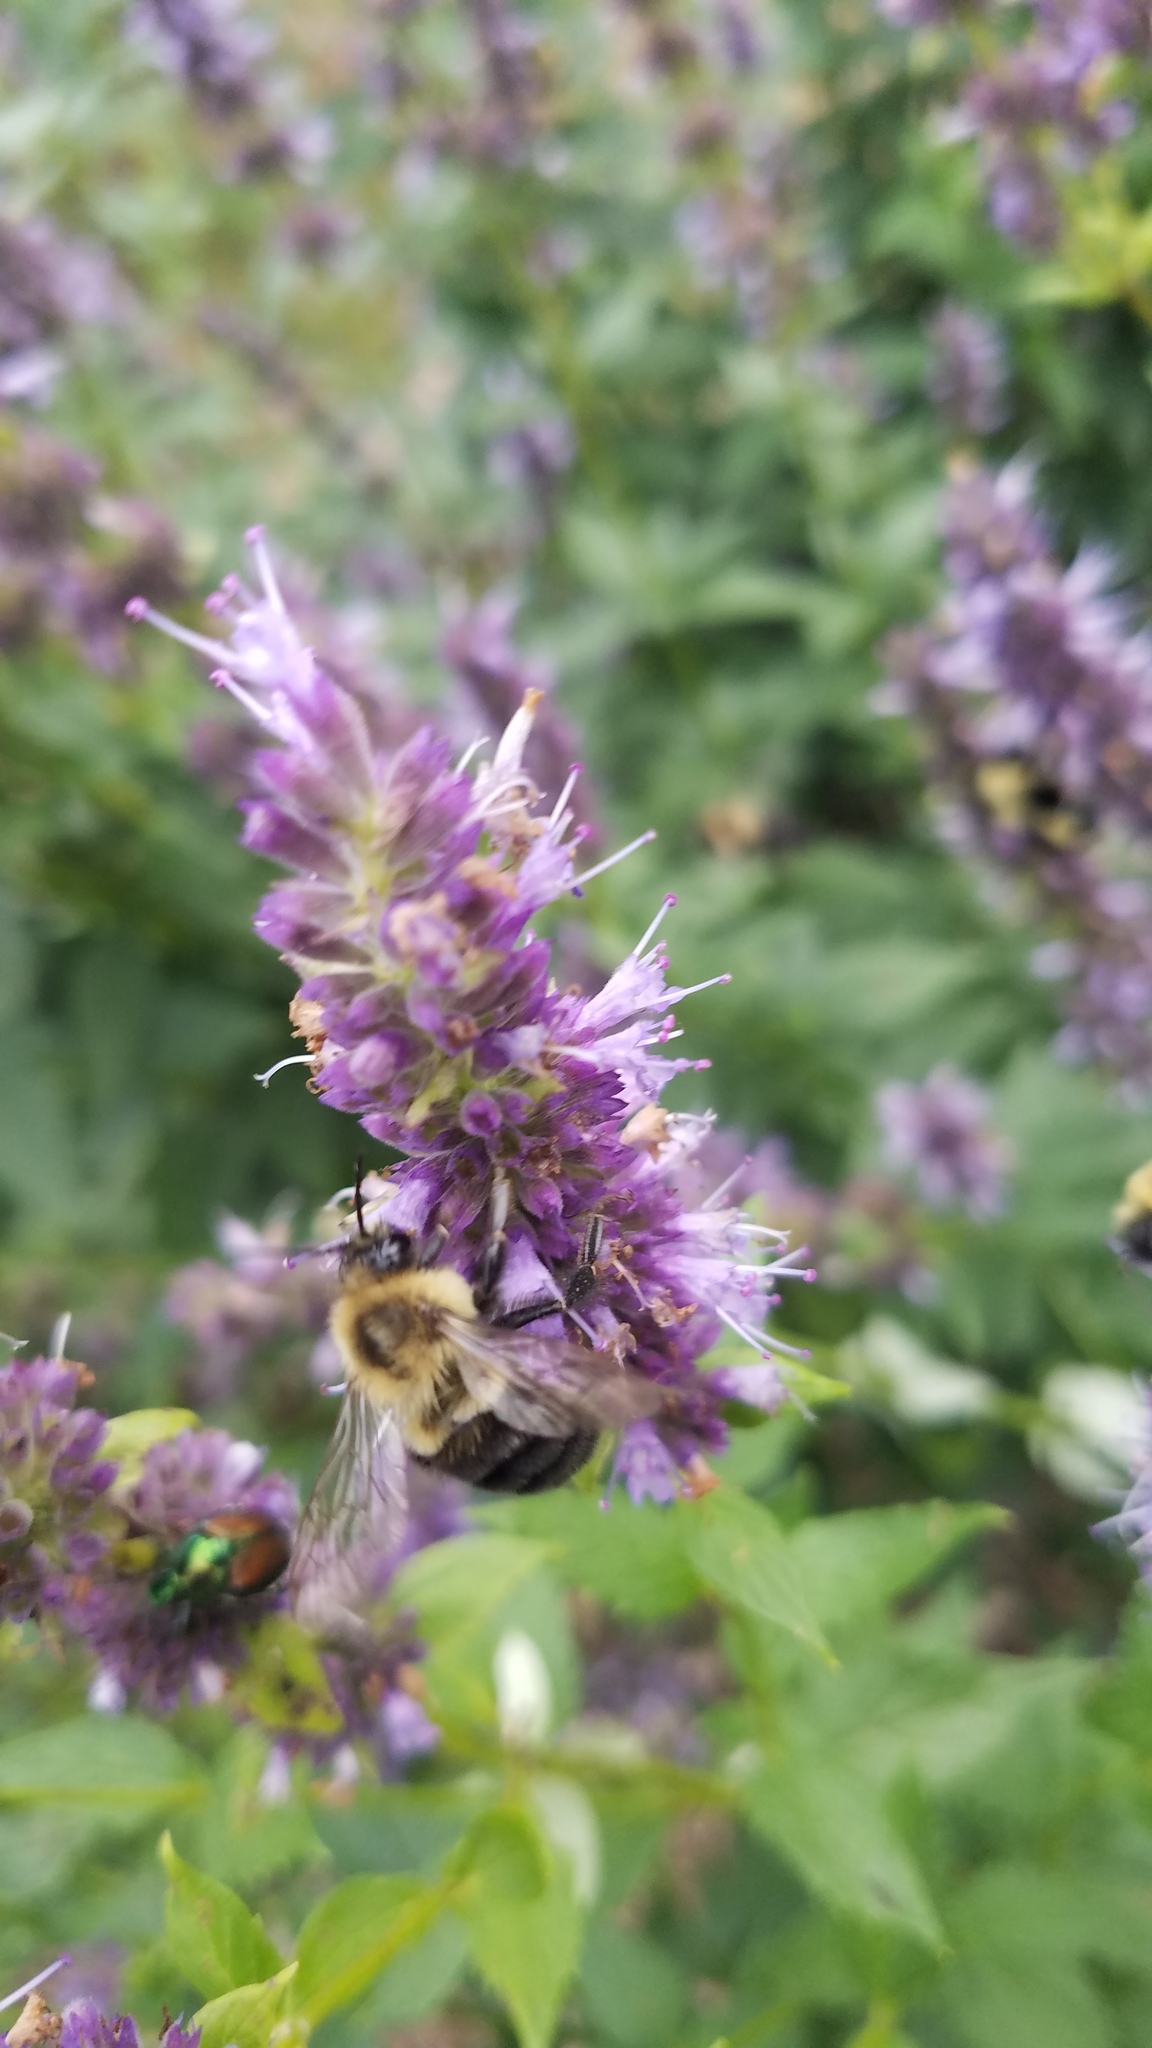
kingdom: Animalia
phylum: Arthropoda
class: Insecta
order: Hymenoptera
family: Apidae
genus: Bombus
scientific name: Bombus impatiens
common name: Common eastern bumble bee
